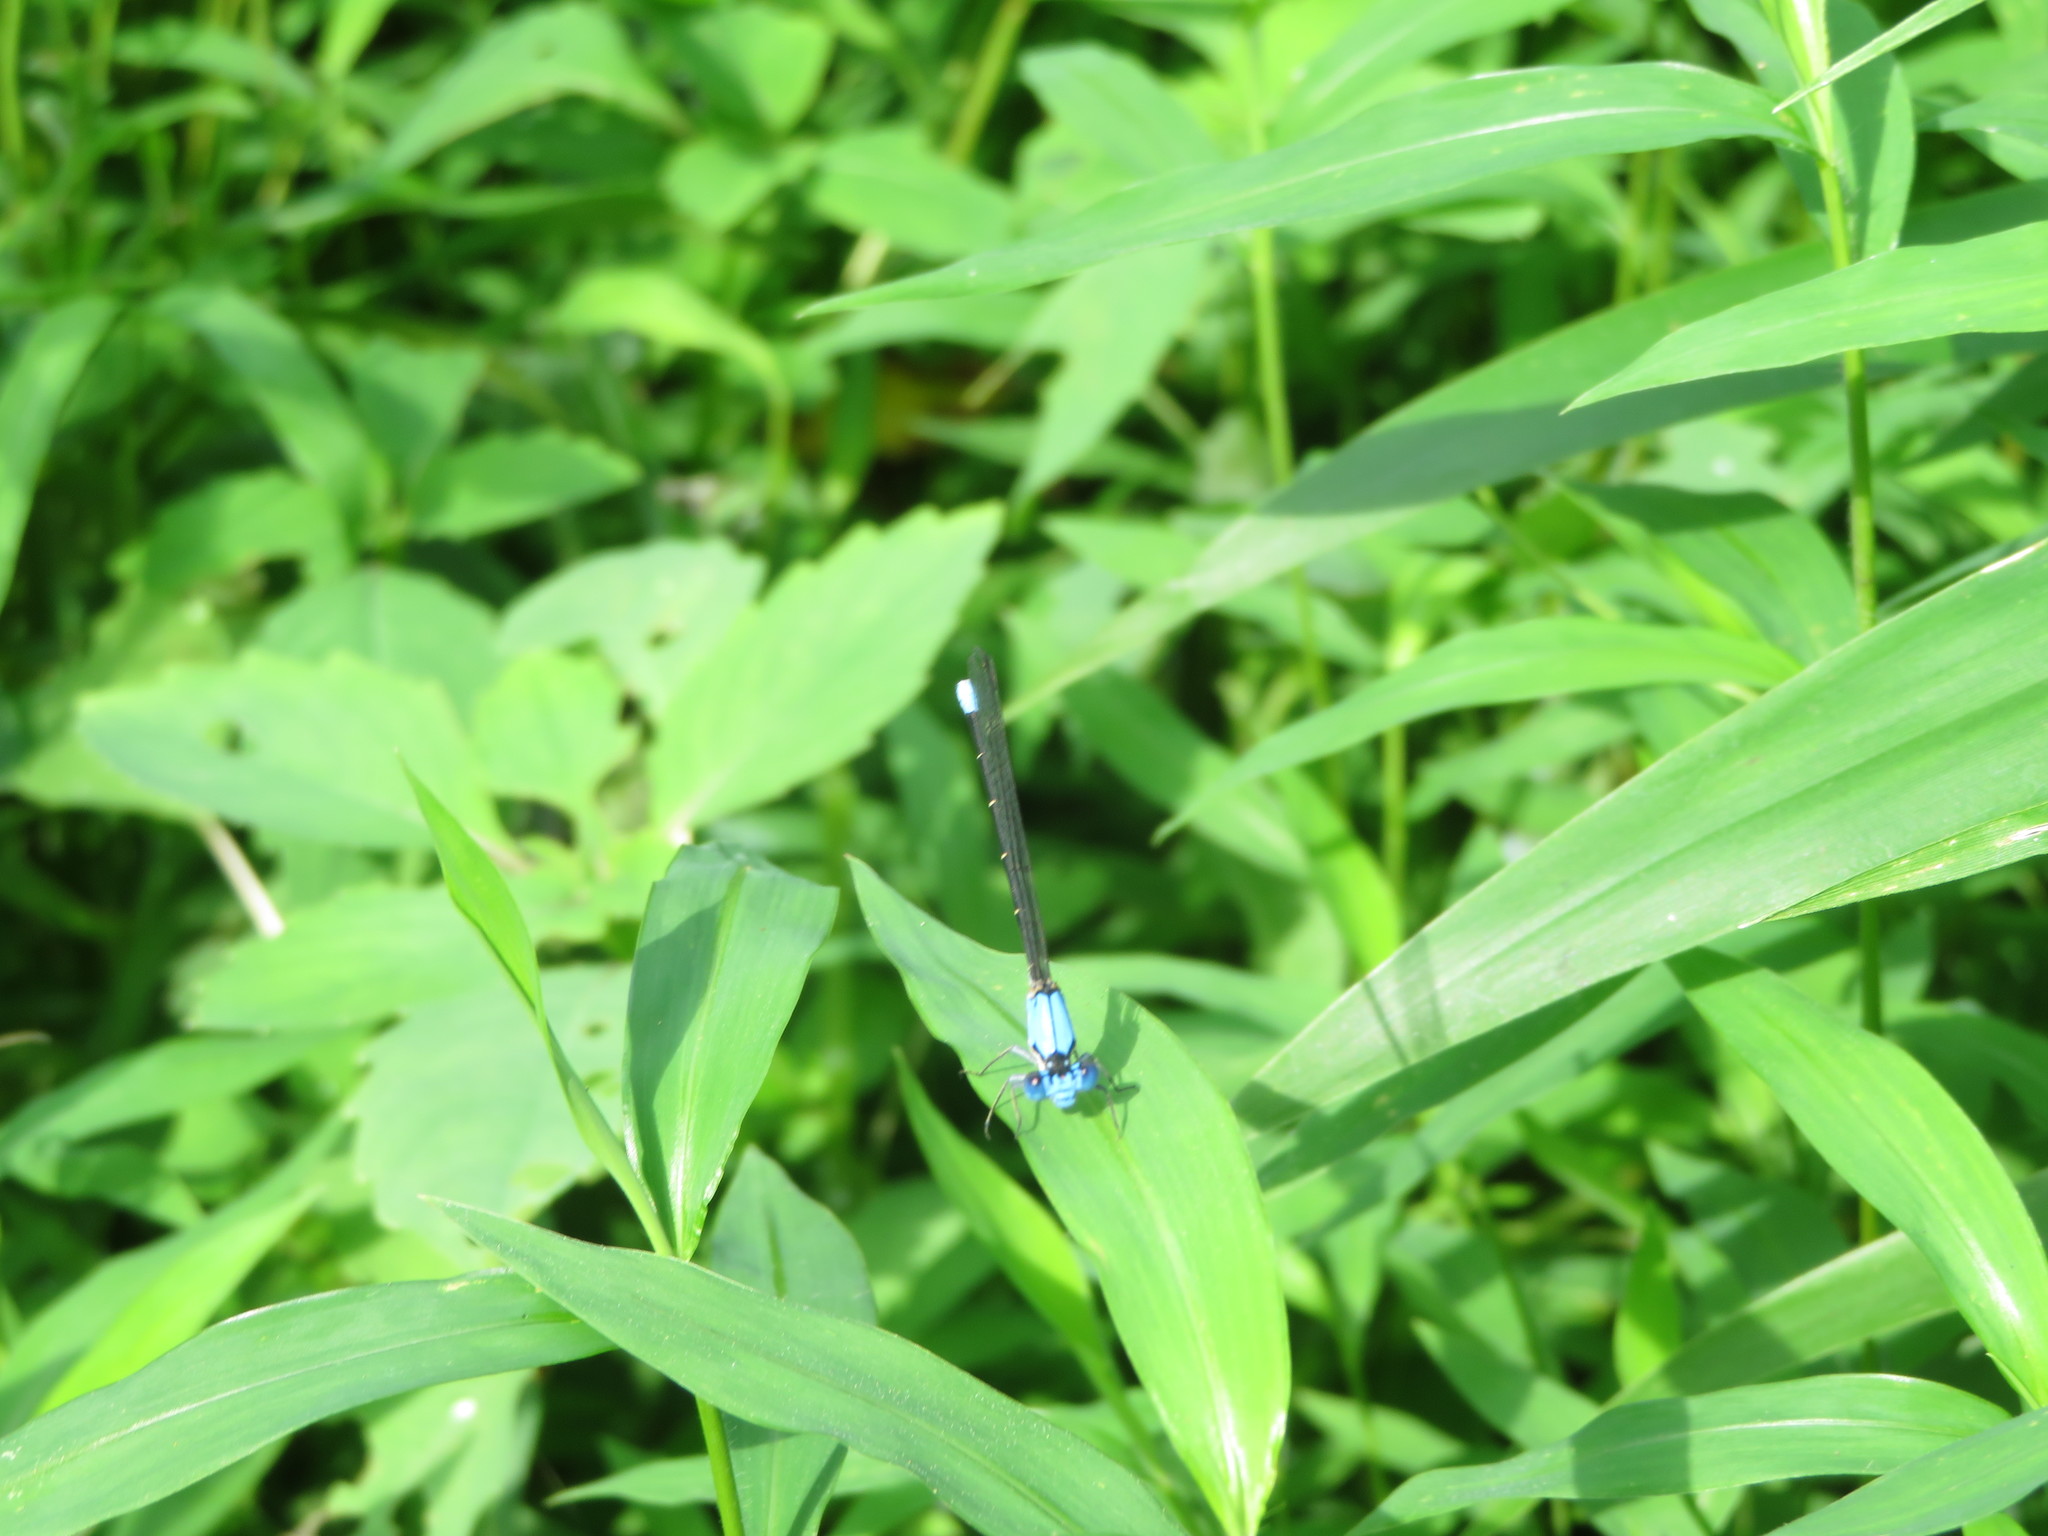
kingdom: Animalia
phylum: Arthropoda
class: Insecta
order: Odonata
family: Coenagrionidae
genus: Argia
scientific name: Argia apicalis
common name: Blue-fronted dancer
